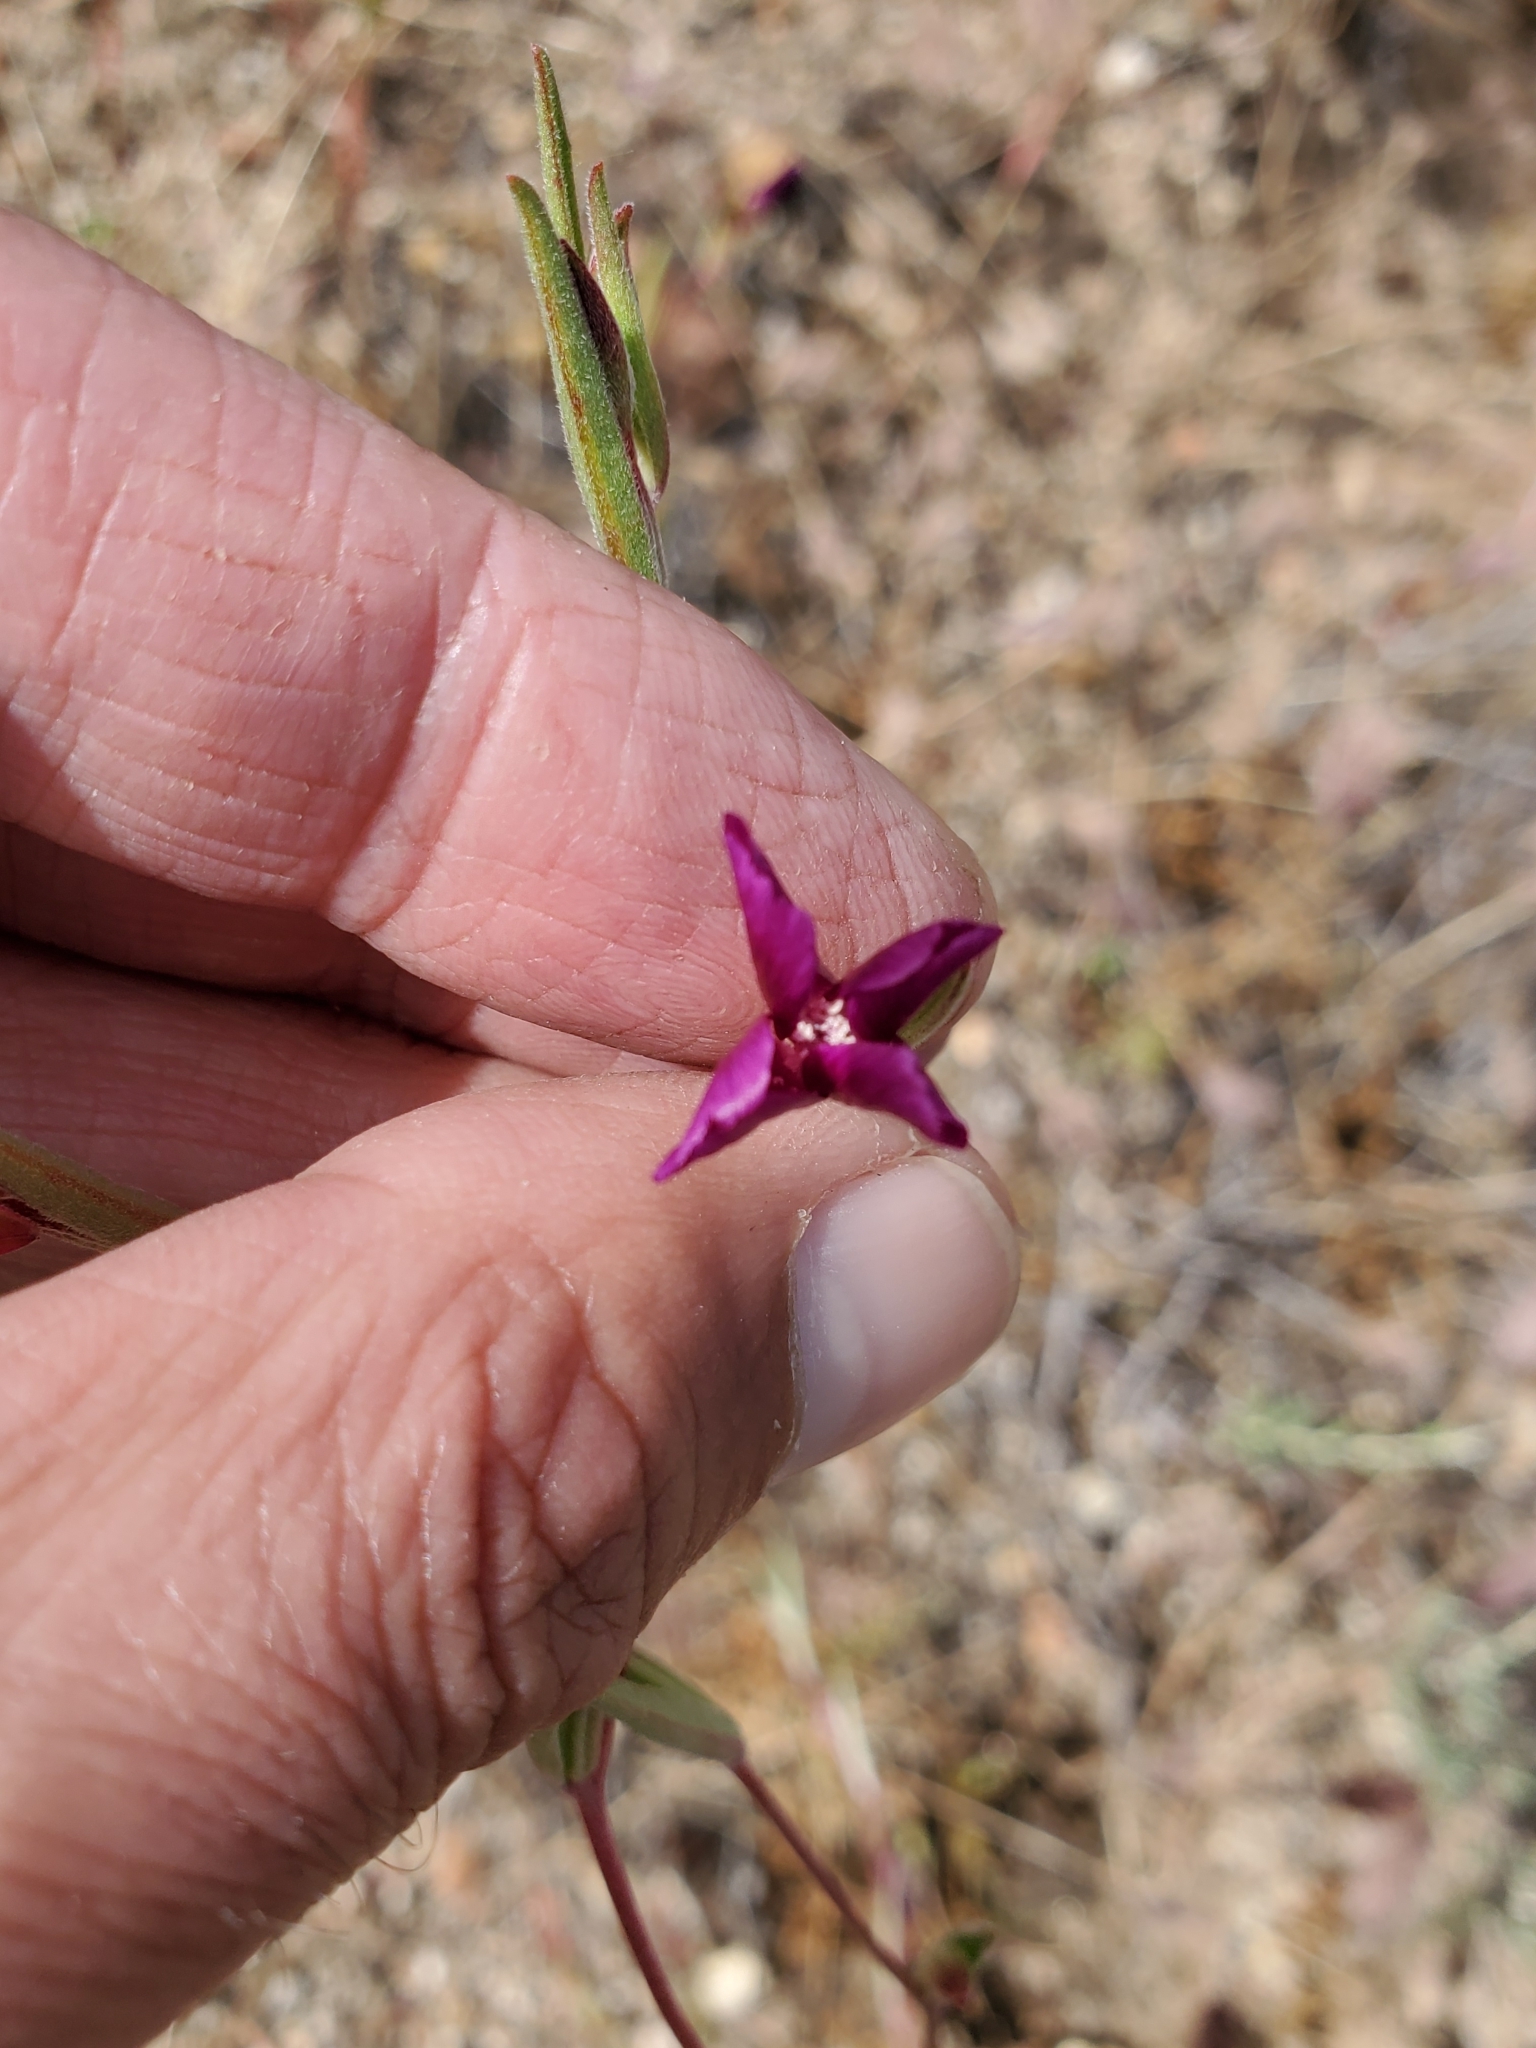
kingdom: Plantae
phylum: Tracheophyta
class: Magnoliopsida
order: Myrtales
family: Onagraceae
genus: Clarkia
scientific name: Clarkia purpurea
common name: Purple clarkia
